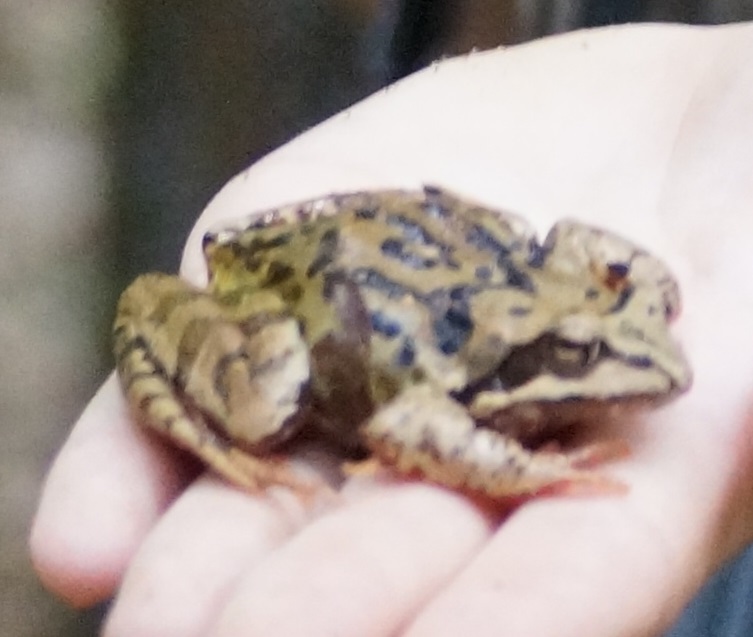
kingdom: Animalia
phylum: Chordata
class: Amphibia
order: Anura
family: Ranidae
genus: Rana
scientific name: Rana temporaria
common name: Common frog
